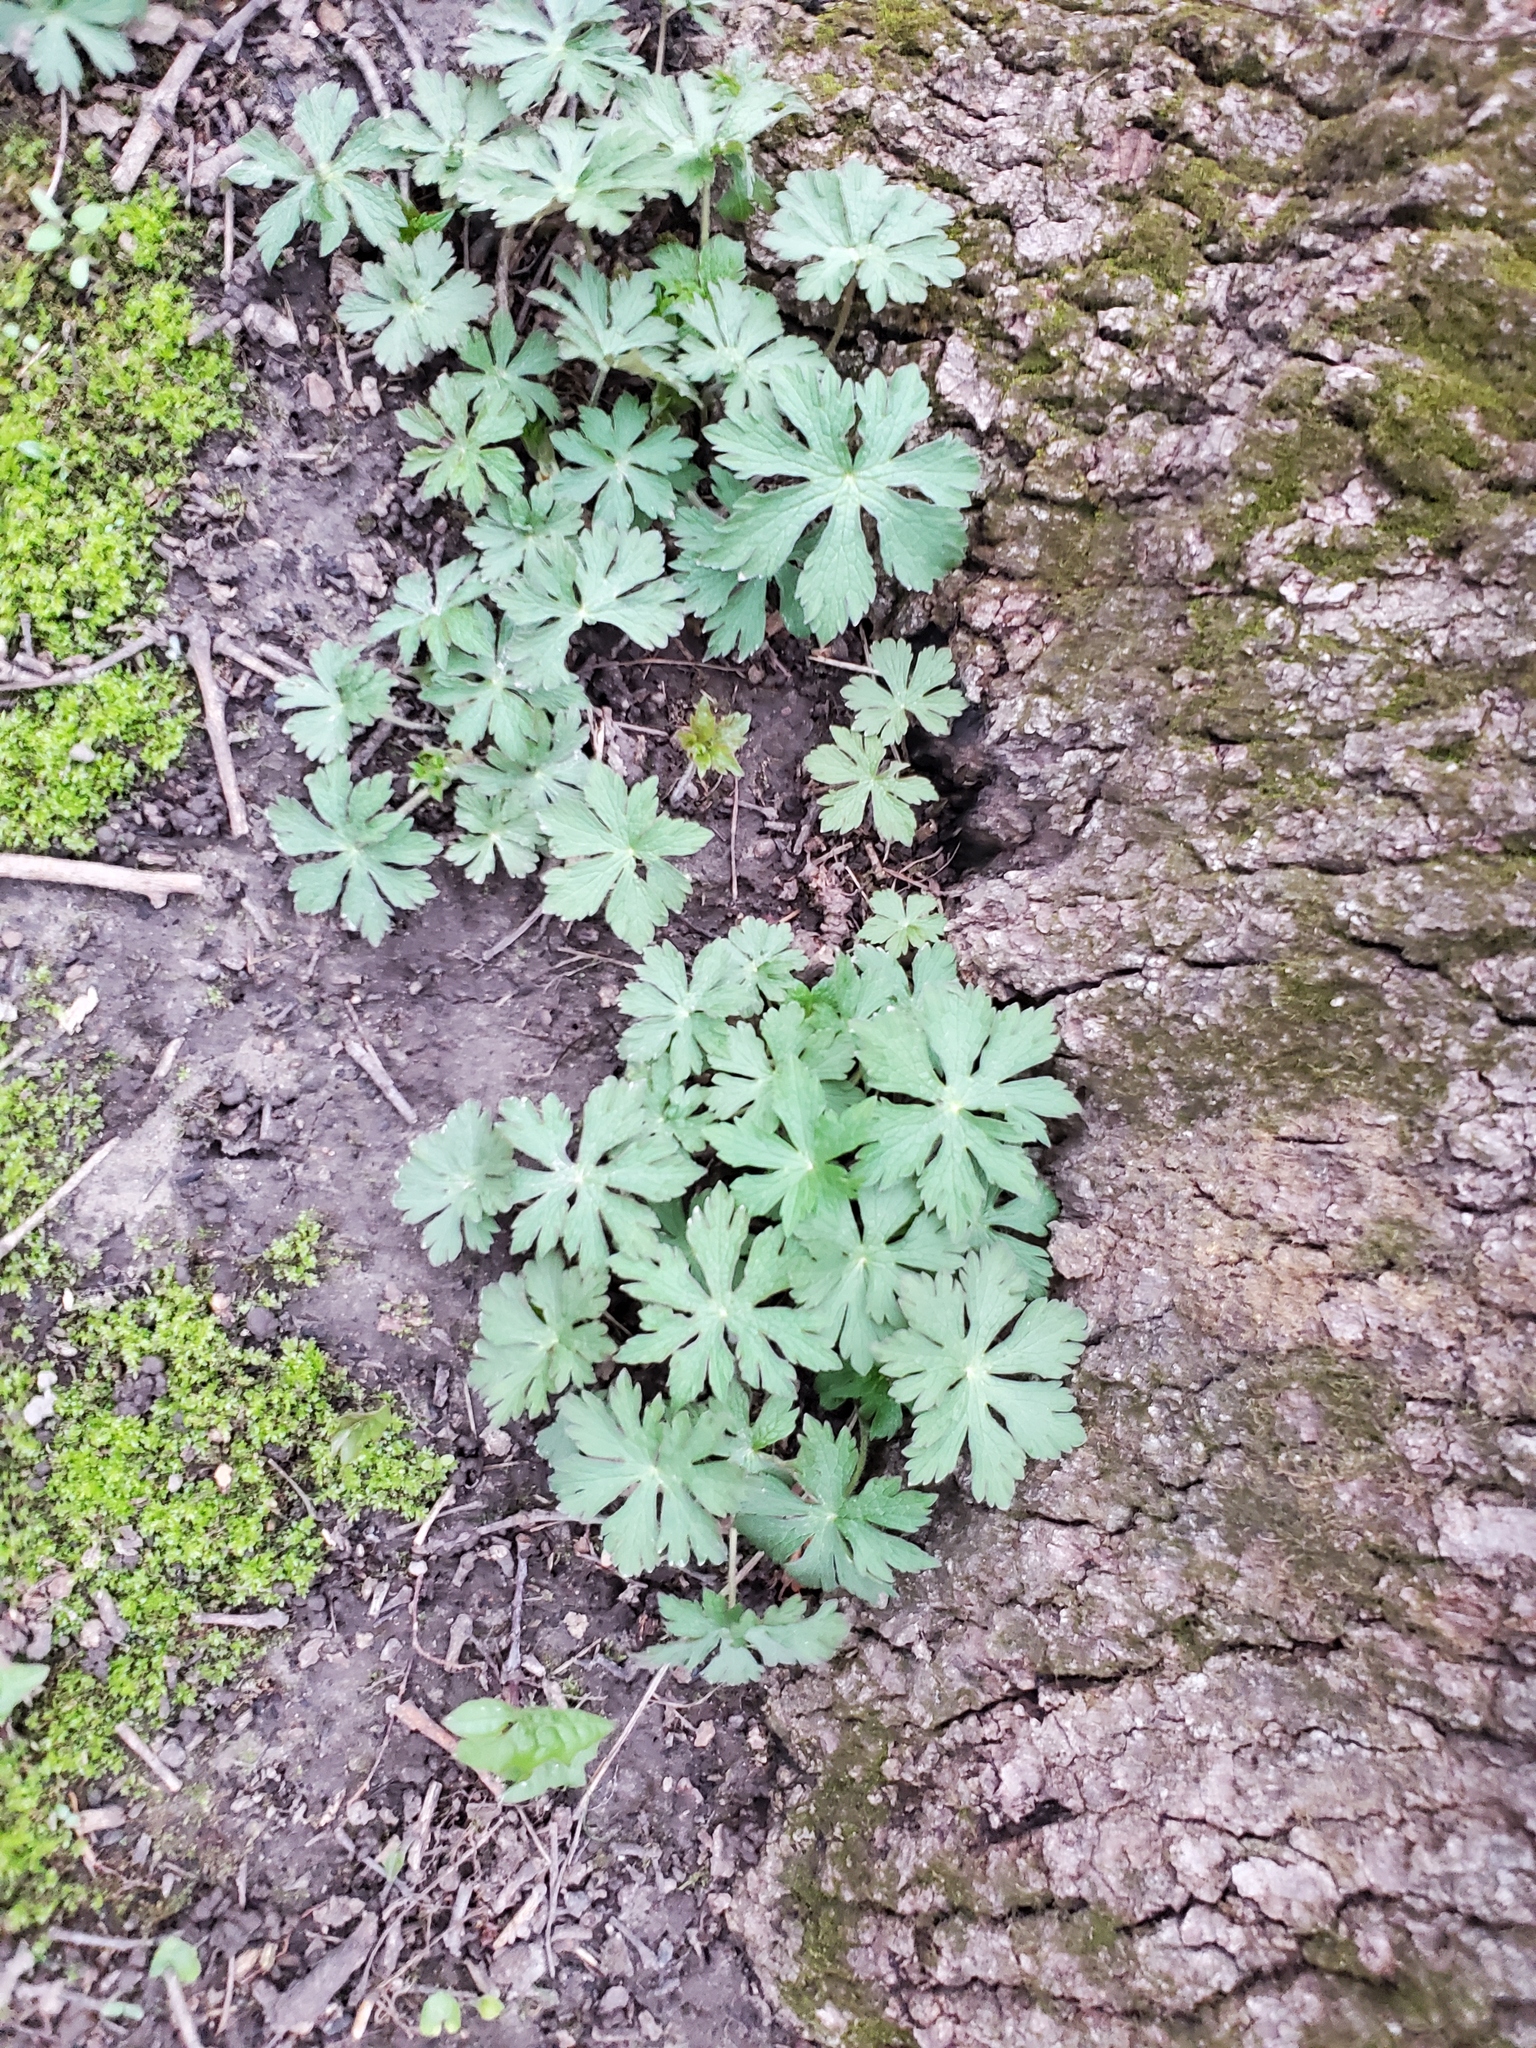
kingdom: Plantae
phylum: Tracheophyta
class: Magnoliopsida
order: Geraniales
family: Geraniaceae
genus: Geranium
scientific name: Geranium maculatum
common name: Spotted geranium
